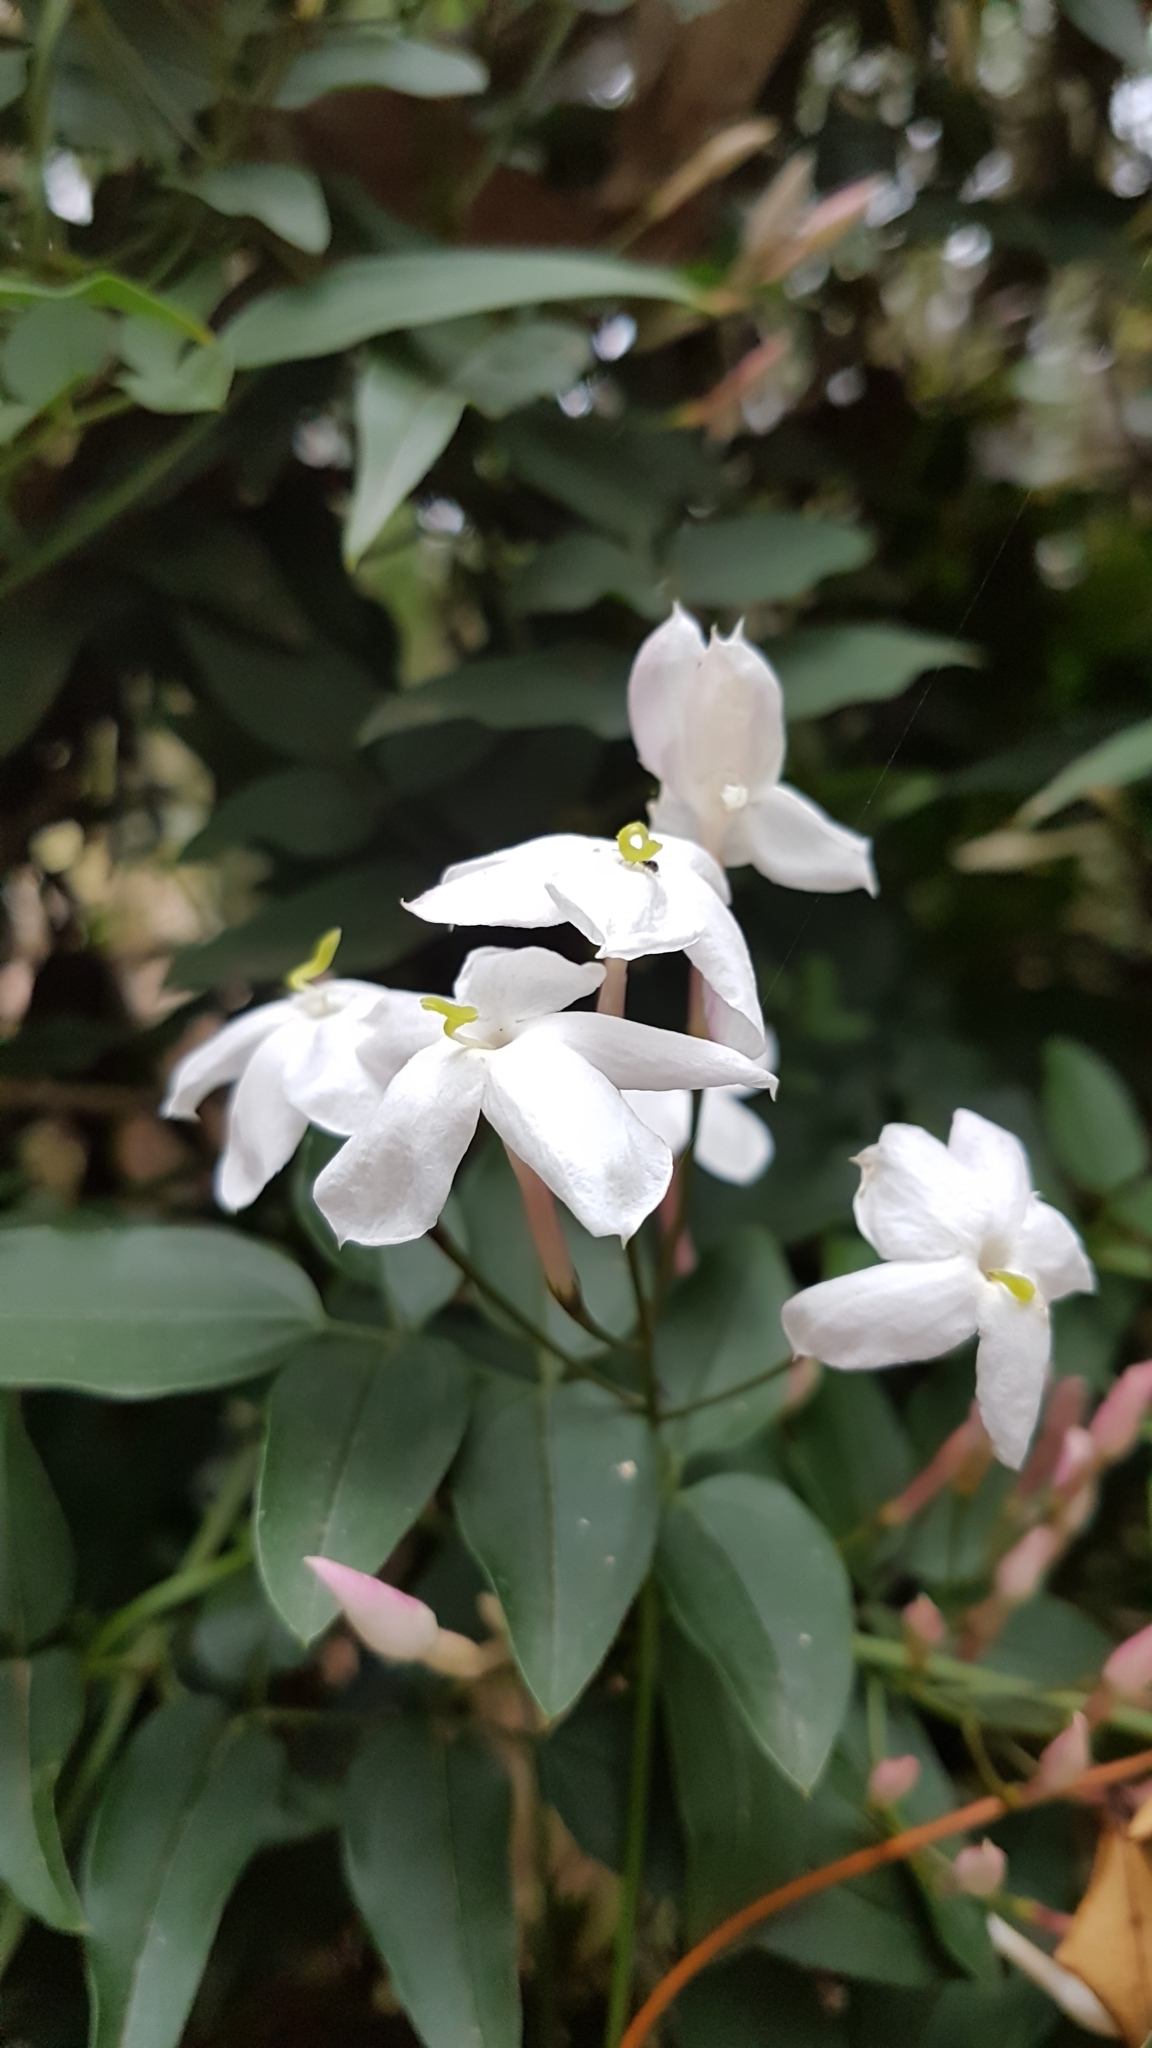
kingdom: Plantae
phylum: Tracheophyta
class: Magnoliopsida
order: Lamiales
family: Oleaceae
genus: Jasminum
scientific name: Jasminum polyanthum
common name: Pink jasmine
